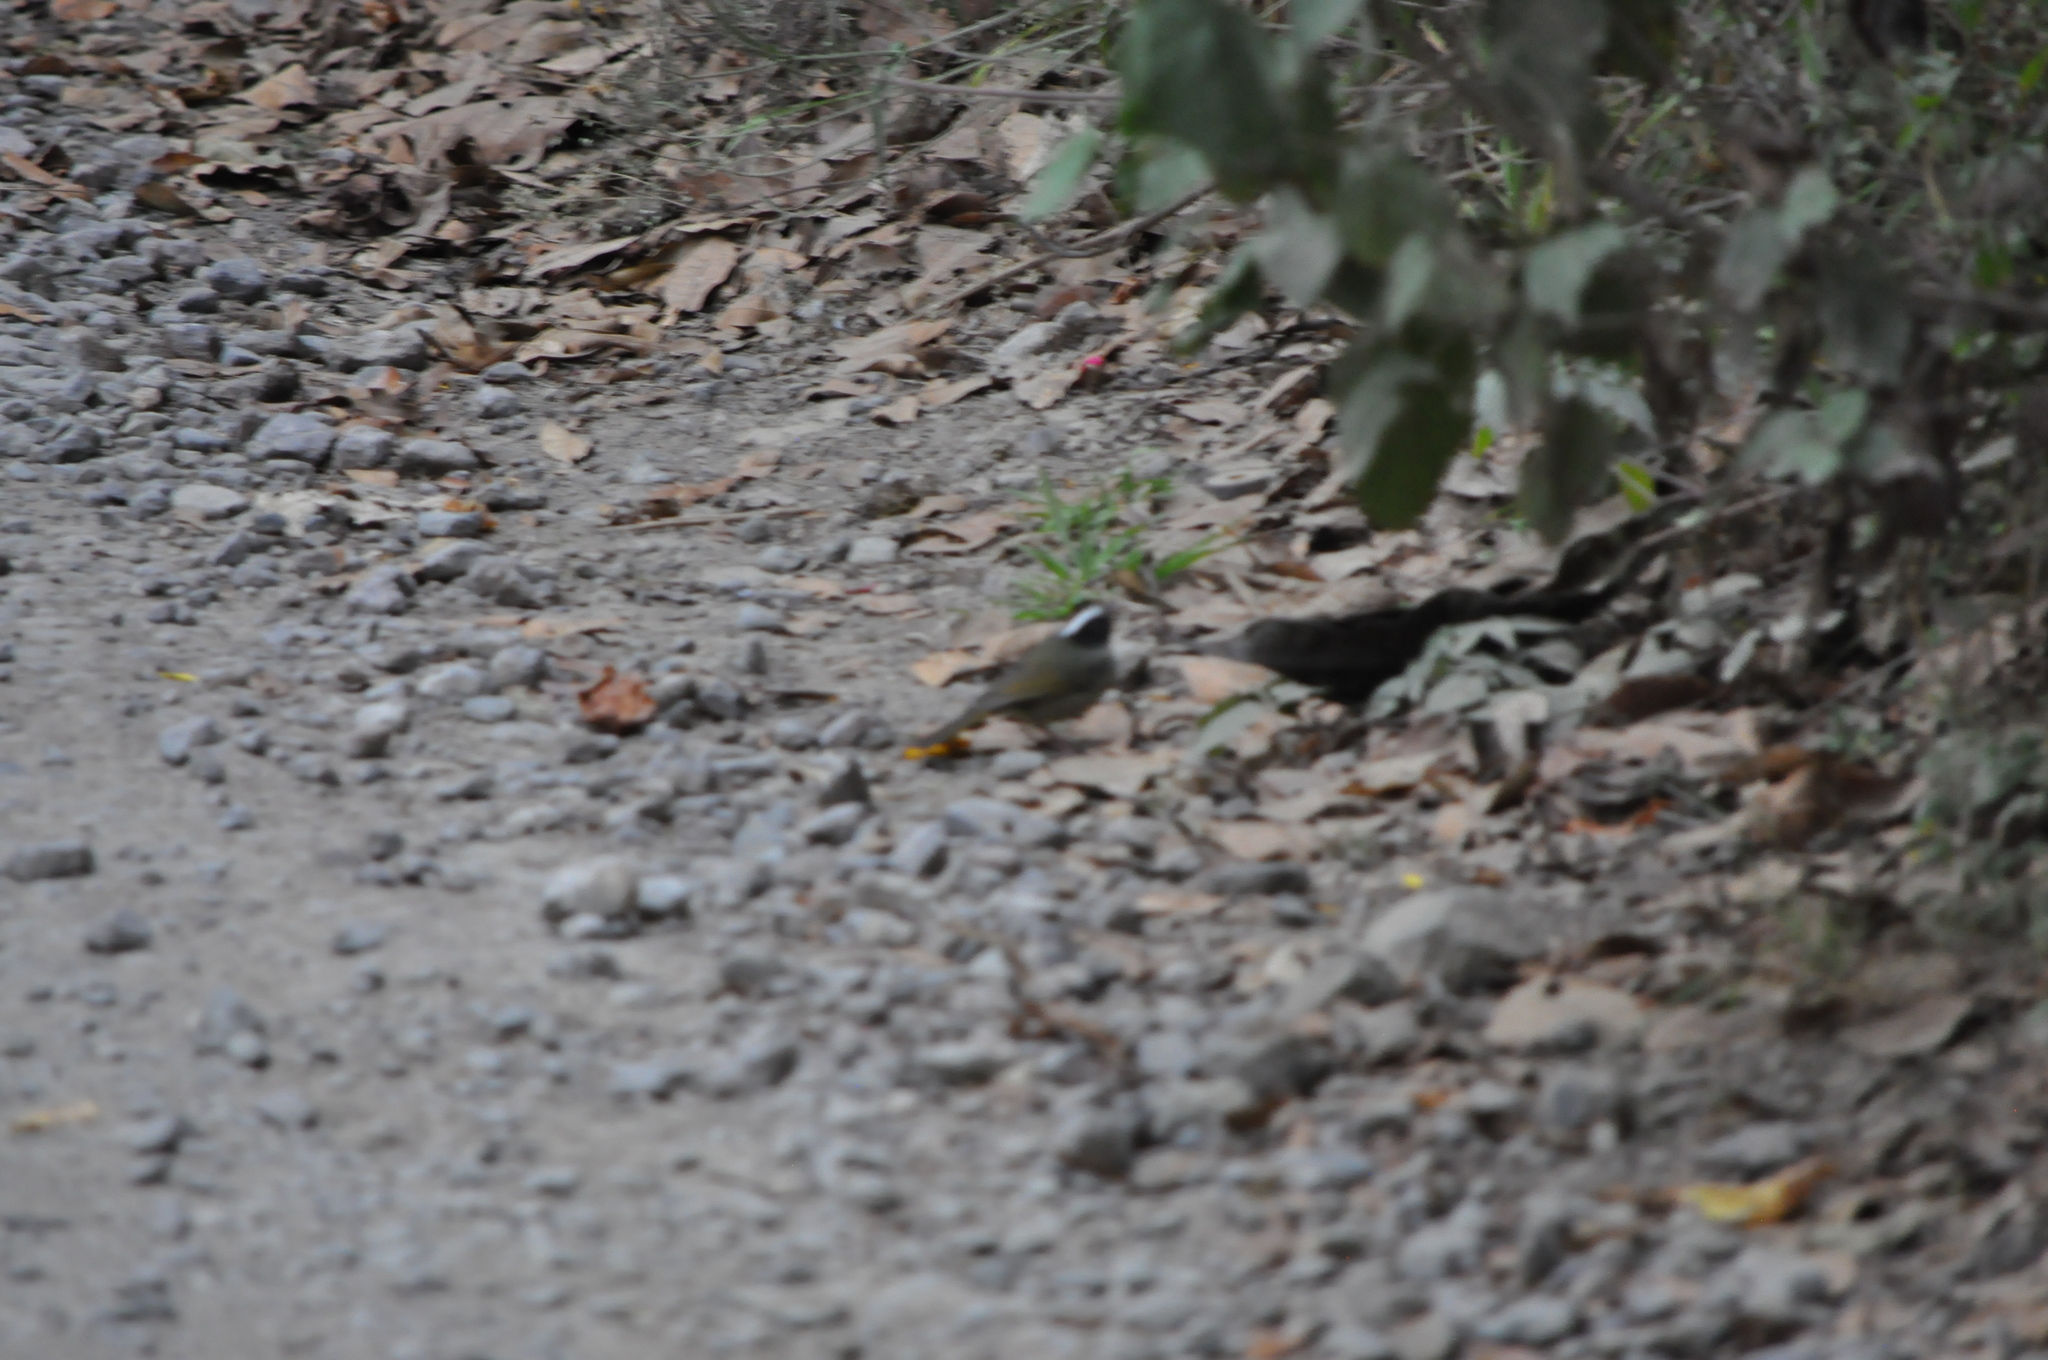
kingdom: Animalia
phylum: Chordata
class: Aves
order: Passeriformes
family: Parulidae
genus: Basileuterus
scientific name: Basileuterus melanogenys
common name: Black-cheeked warbler
